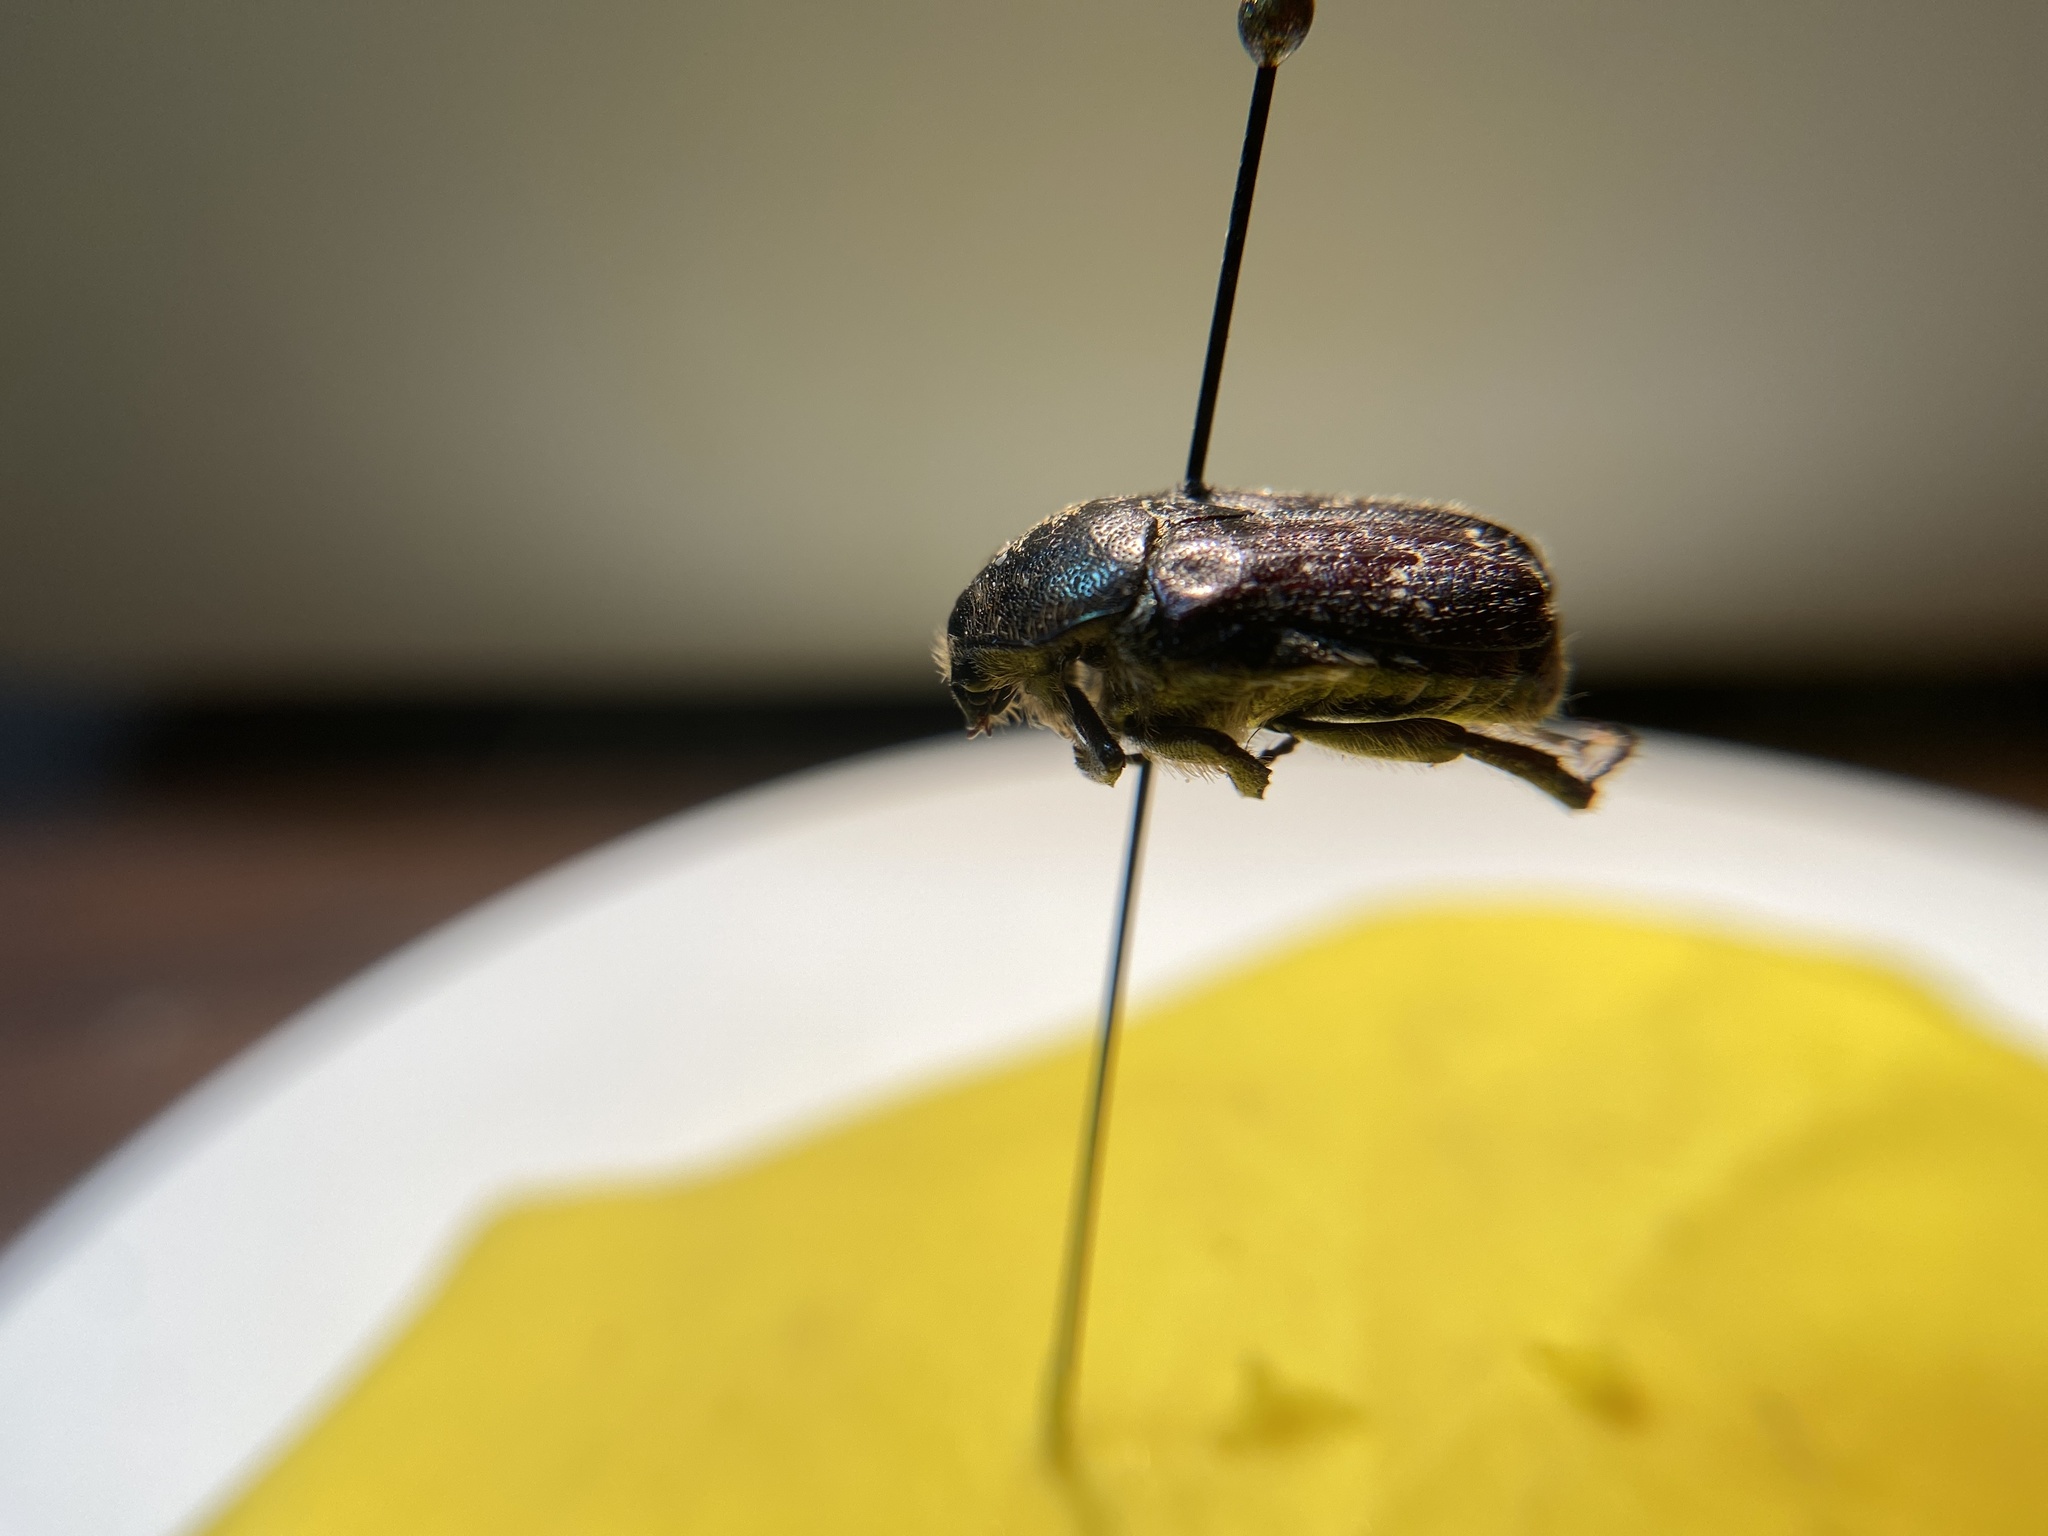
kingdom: Animalia
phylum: Arthropoda
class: Insecta
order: Coleoptera
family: Scarabaeidae
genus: Euphoria
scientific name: Euphoria sepulcralis
